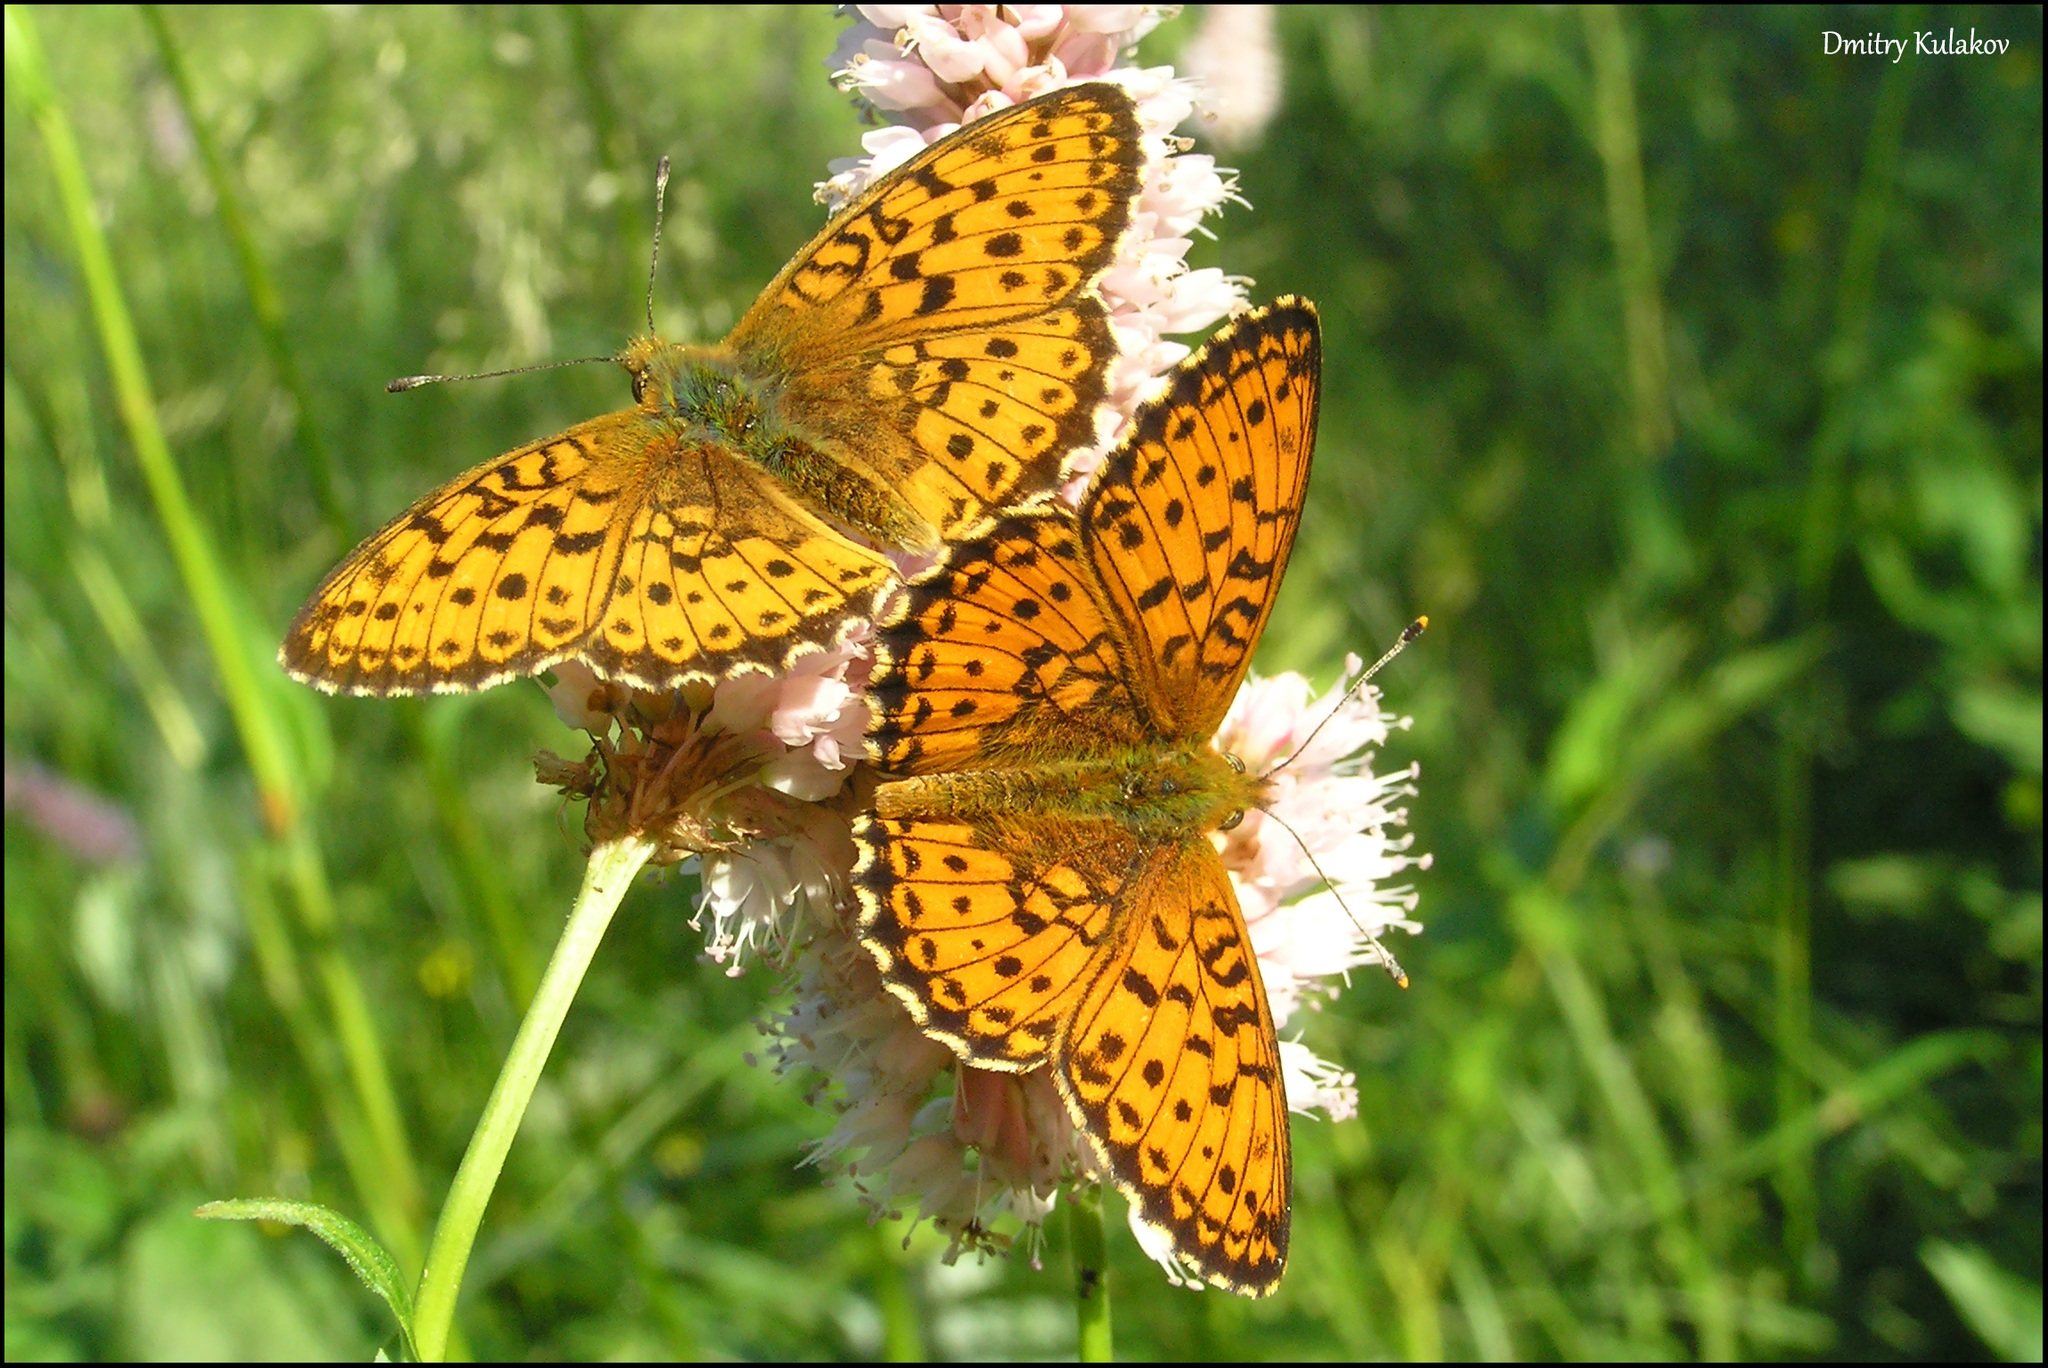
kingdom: Animalia
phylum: Arthropoda
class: Insecta
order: Lepidoptera
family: Nymphalidae
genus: Brenthis
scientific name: Brenthis ino
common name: Lesser marbled fritillary
